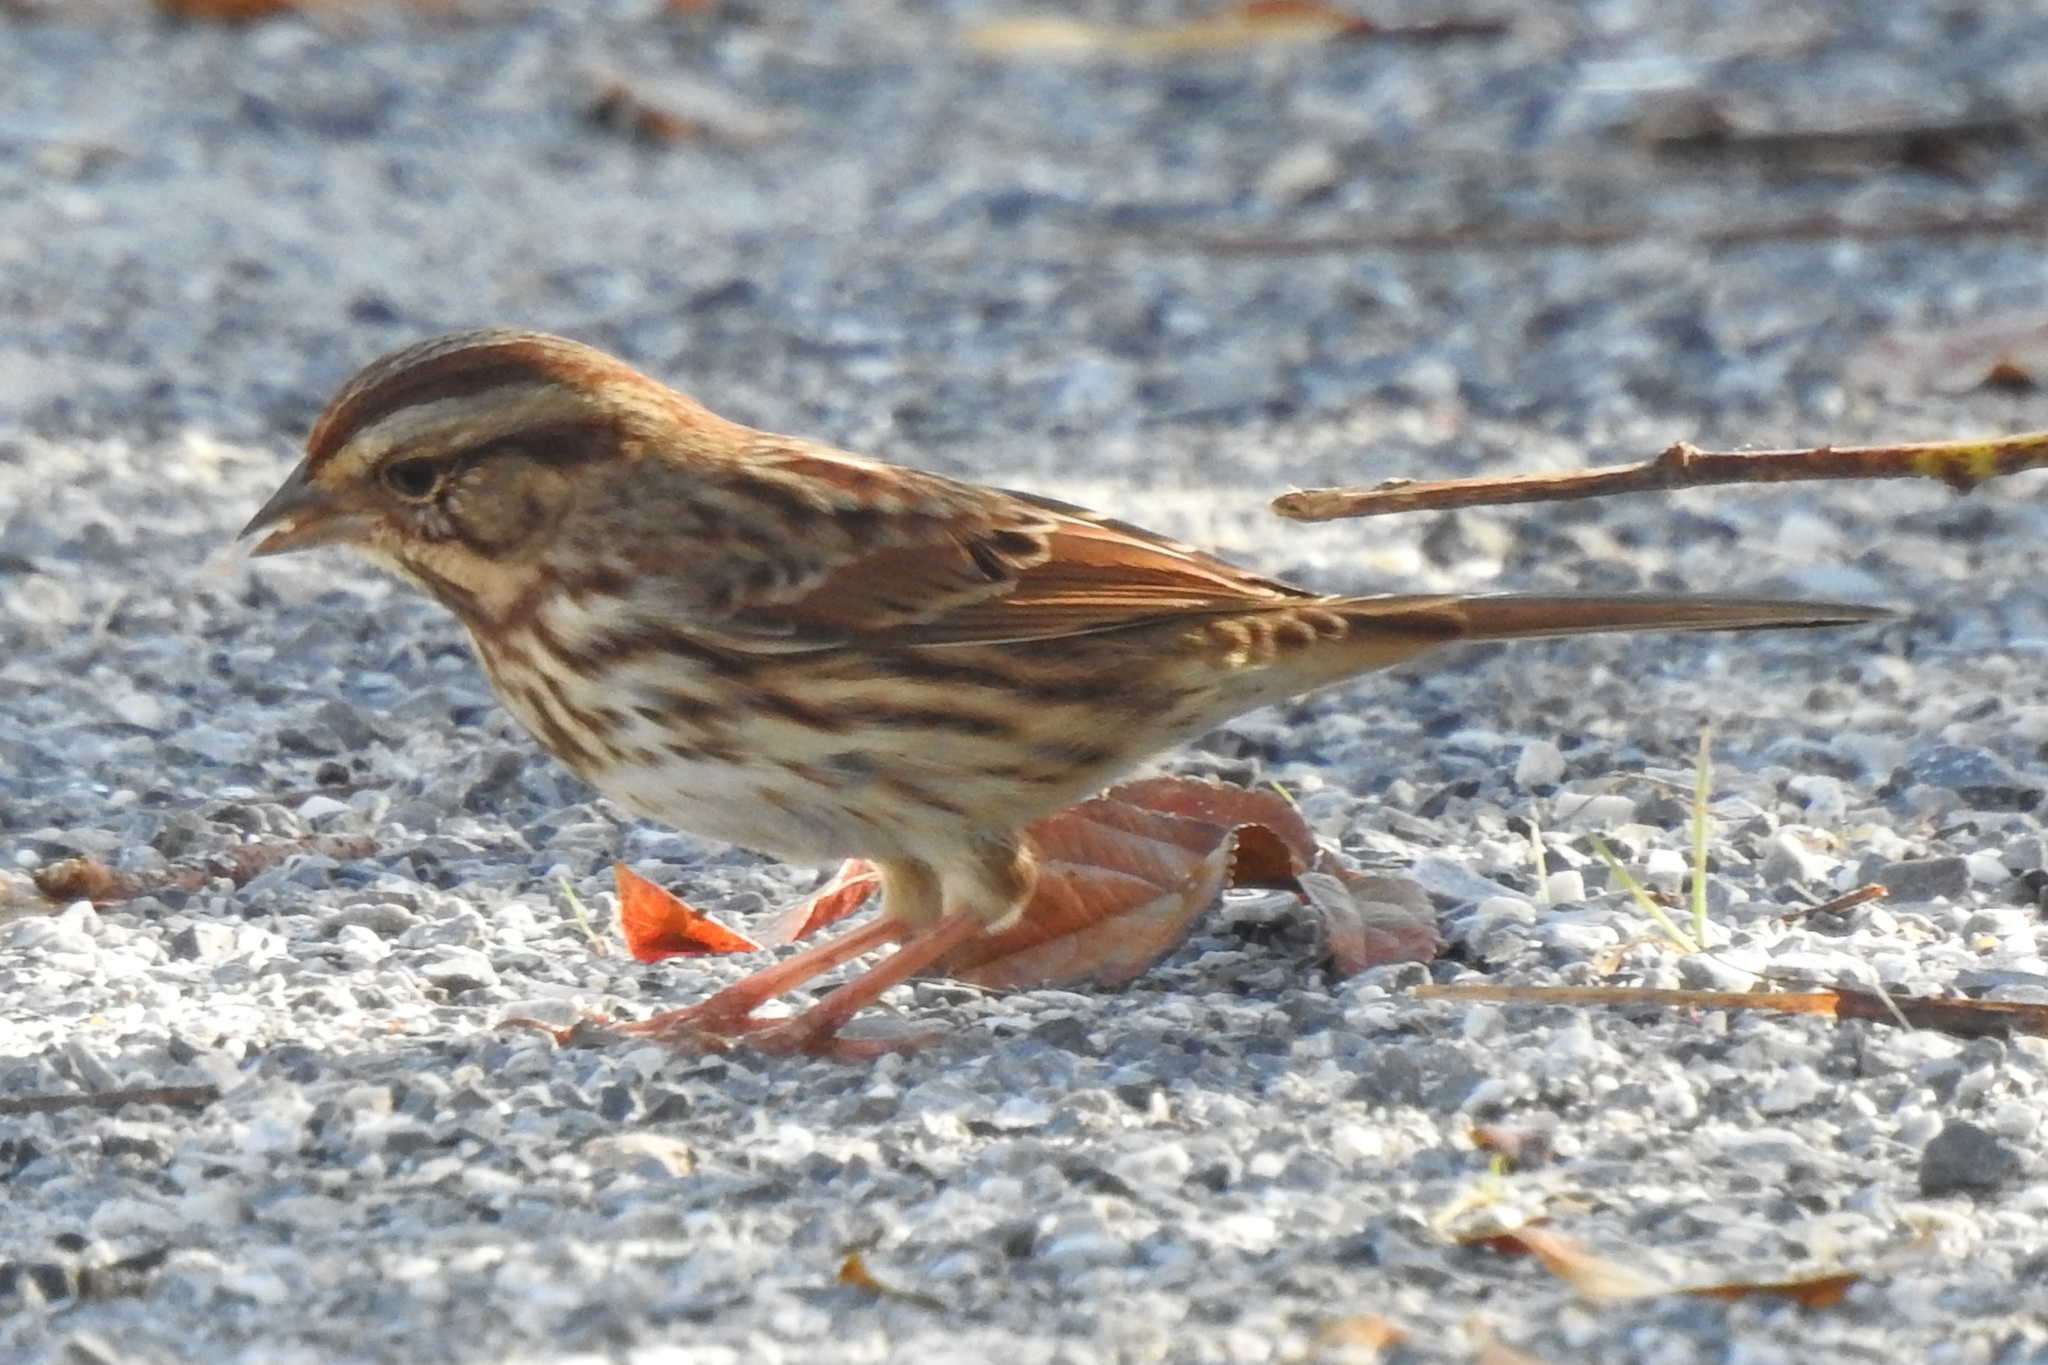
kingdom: Animalia
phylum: Chordata
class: Aves
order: Passeriformes
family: Passerellidae
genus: Melospiza
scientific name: Melospiza melodia
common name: Song sparrow
